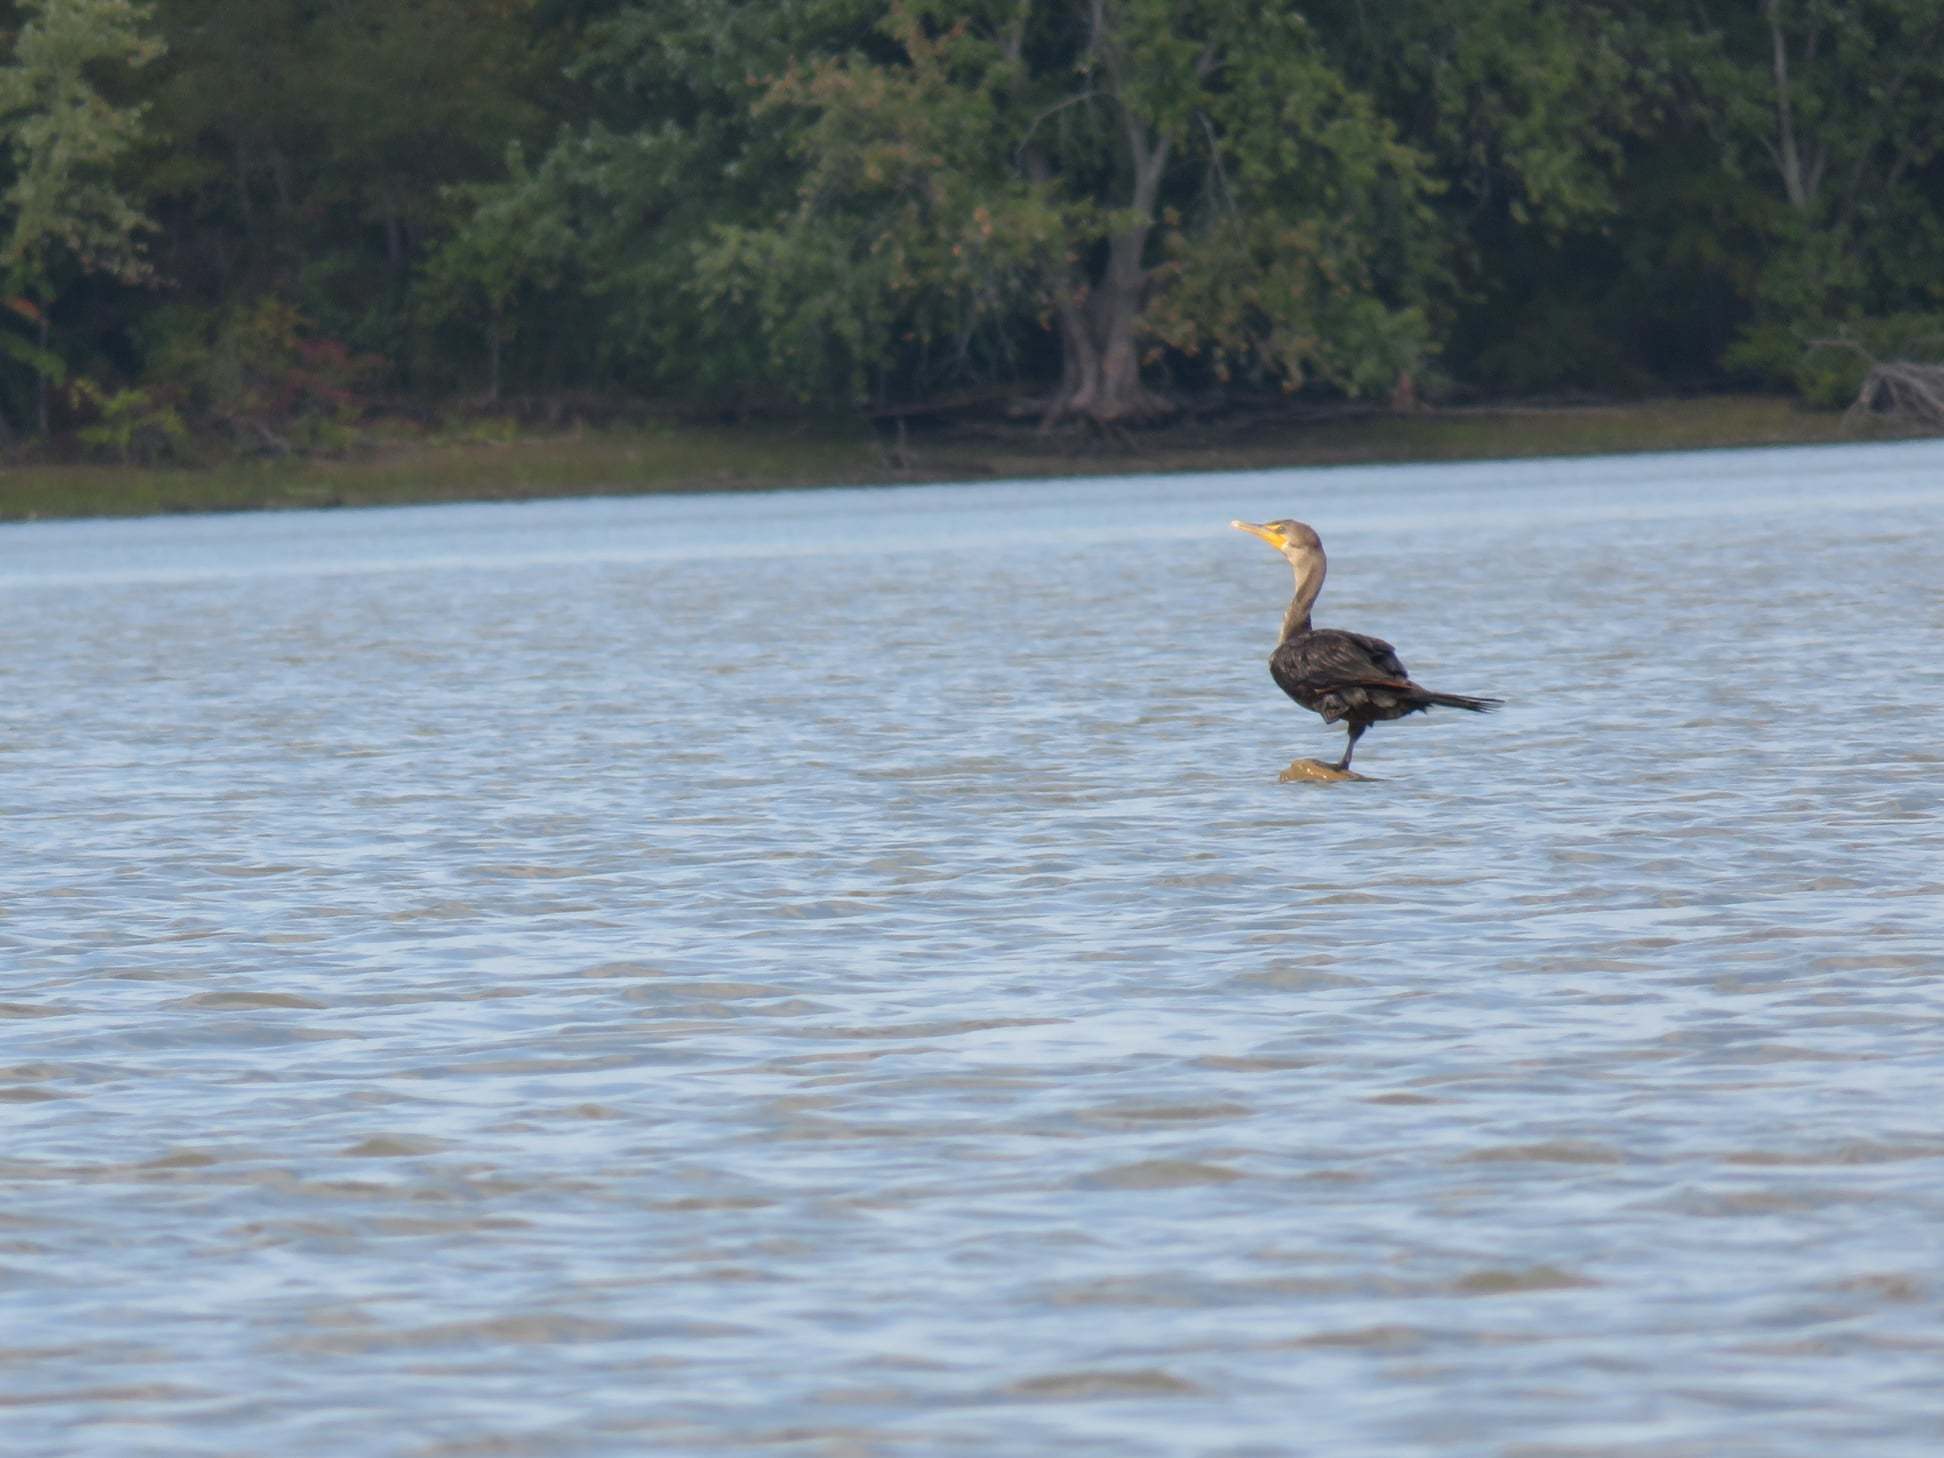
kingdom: Animalia
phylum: Chordata
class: Aves
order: Suliformes
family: Phalacrocoracidae
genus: Phalacrocorax
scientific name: Phalacrocorax auritus
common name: Double-crested cormorant
